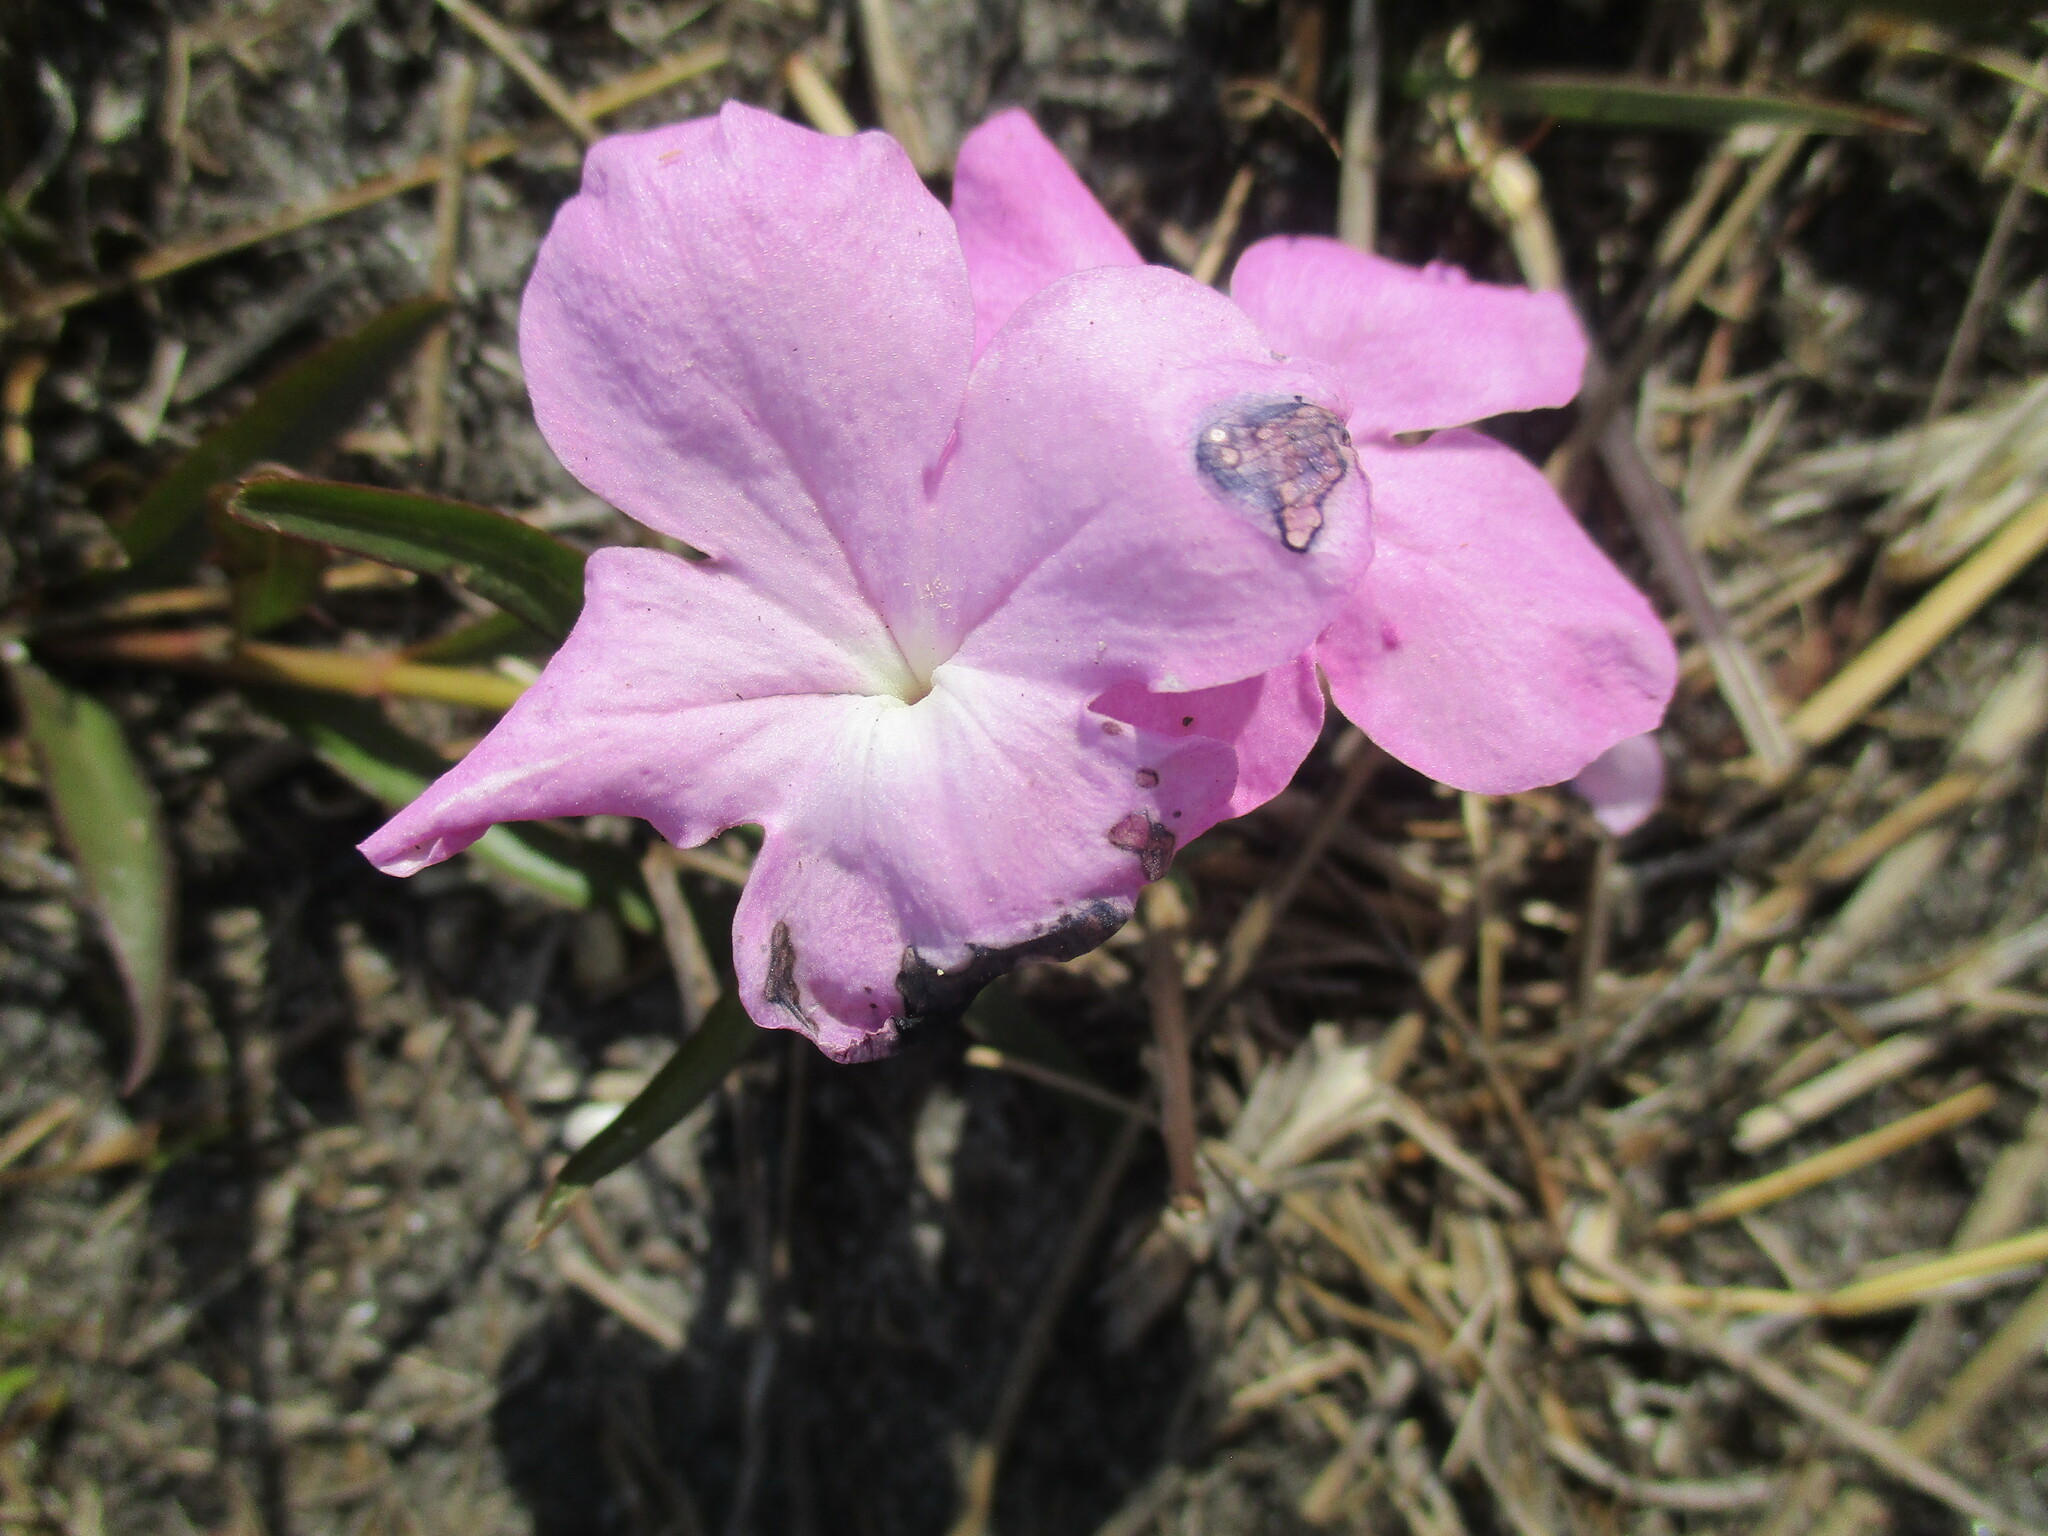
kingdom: Plantae
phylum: Tracheophyta
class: Magnoliopsida
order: Lamiales
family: Orobanchaceae
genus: Cycnium
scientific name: Cycnium tubulosum
